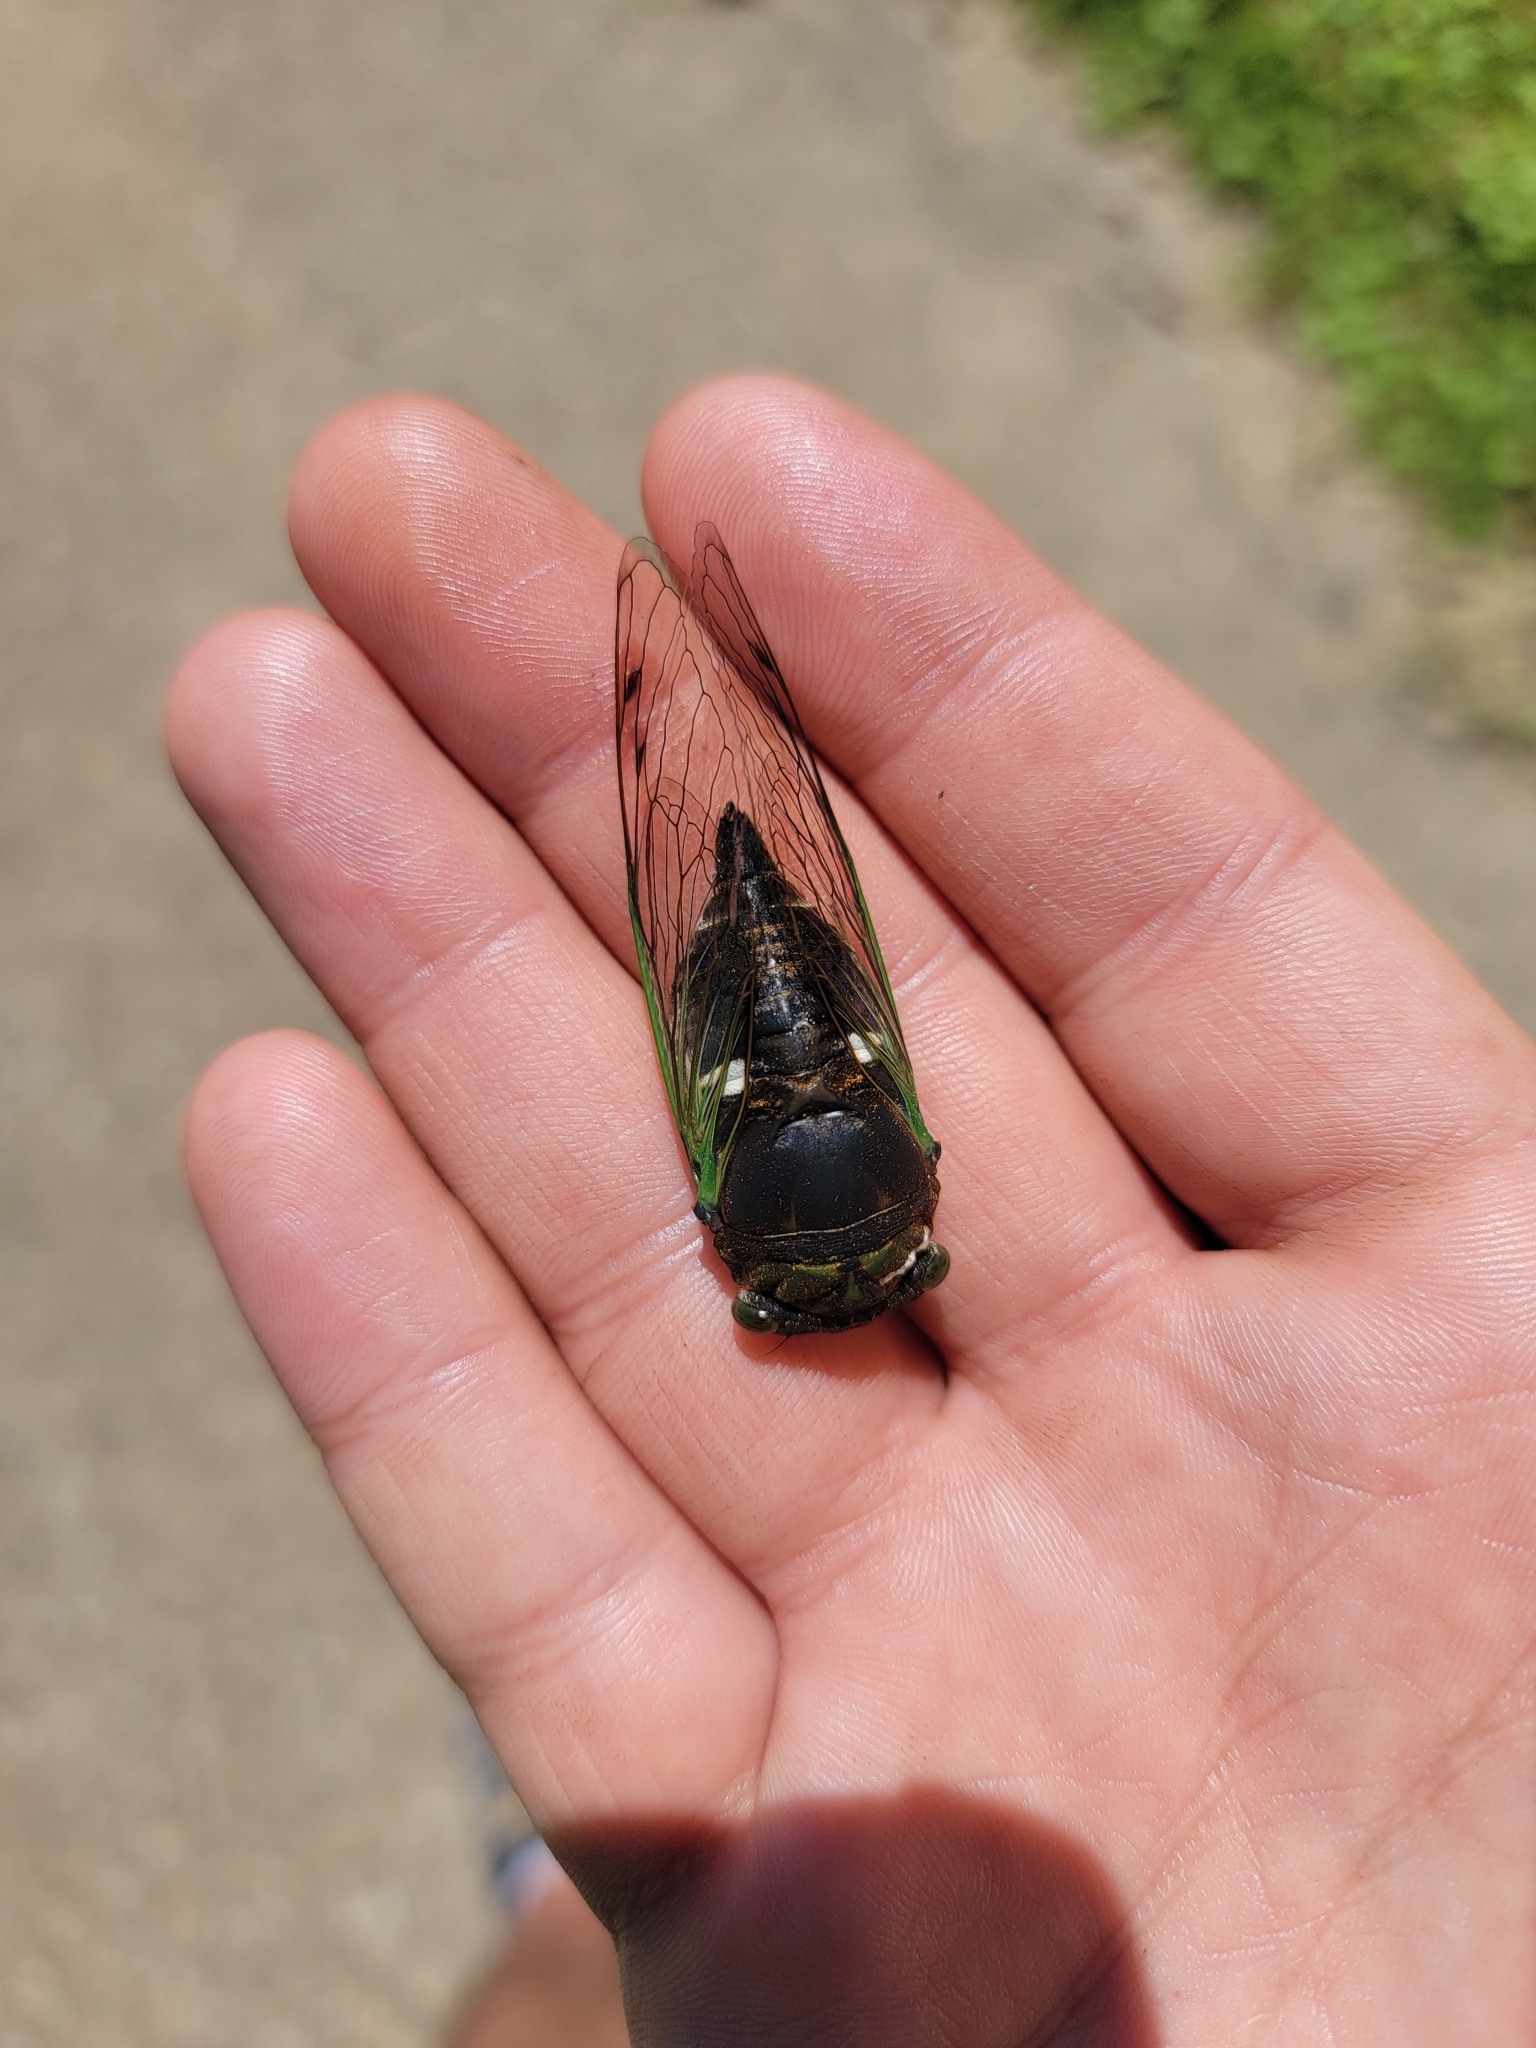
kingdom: Animalia
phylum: Arthropoda
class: Insecta
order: Hemiptera
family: Cicadidae
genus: Neotibicen
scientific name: Neotibicen tibicen
